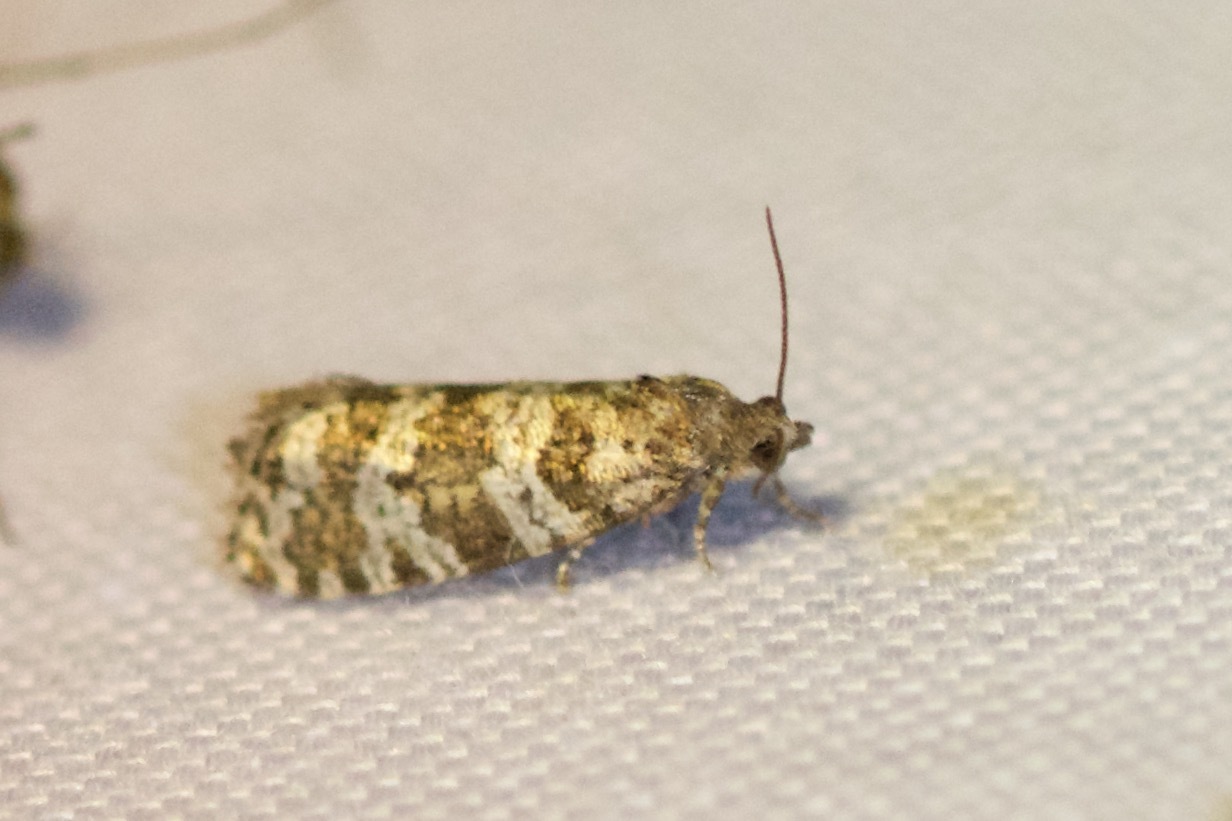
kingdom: Animalia
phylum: Arthropoda
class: Insecta
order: Lepidoptera
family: Tortricidae
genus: Taniva
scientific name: Taniva albolineana
